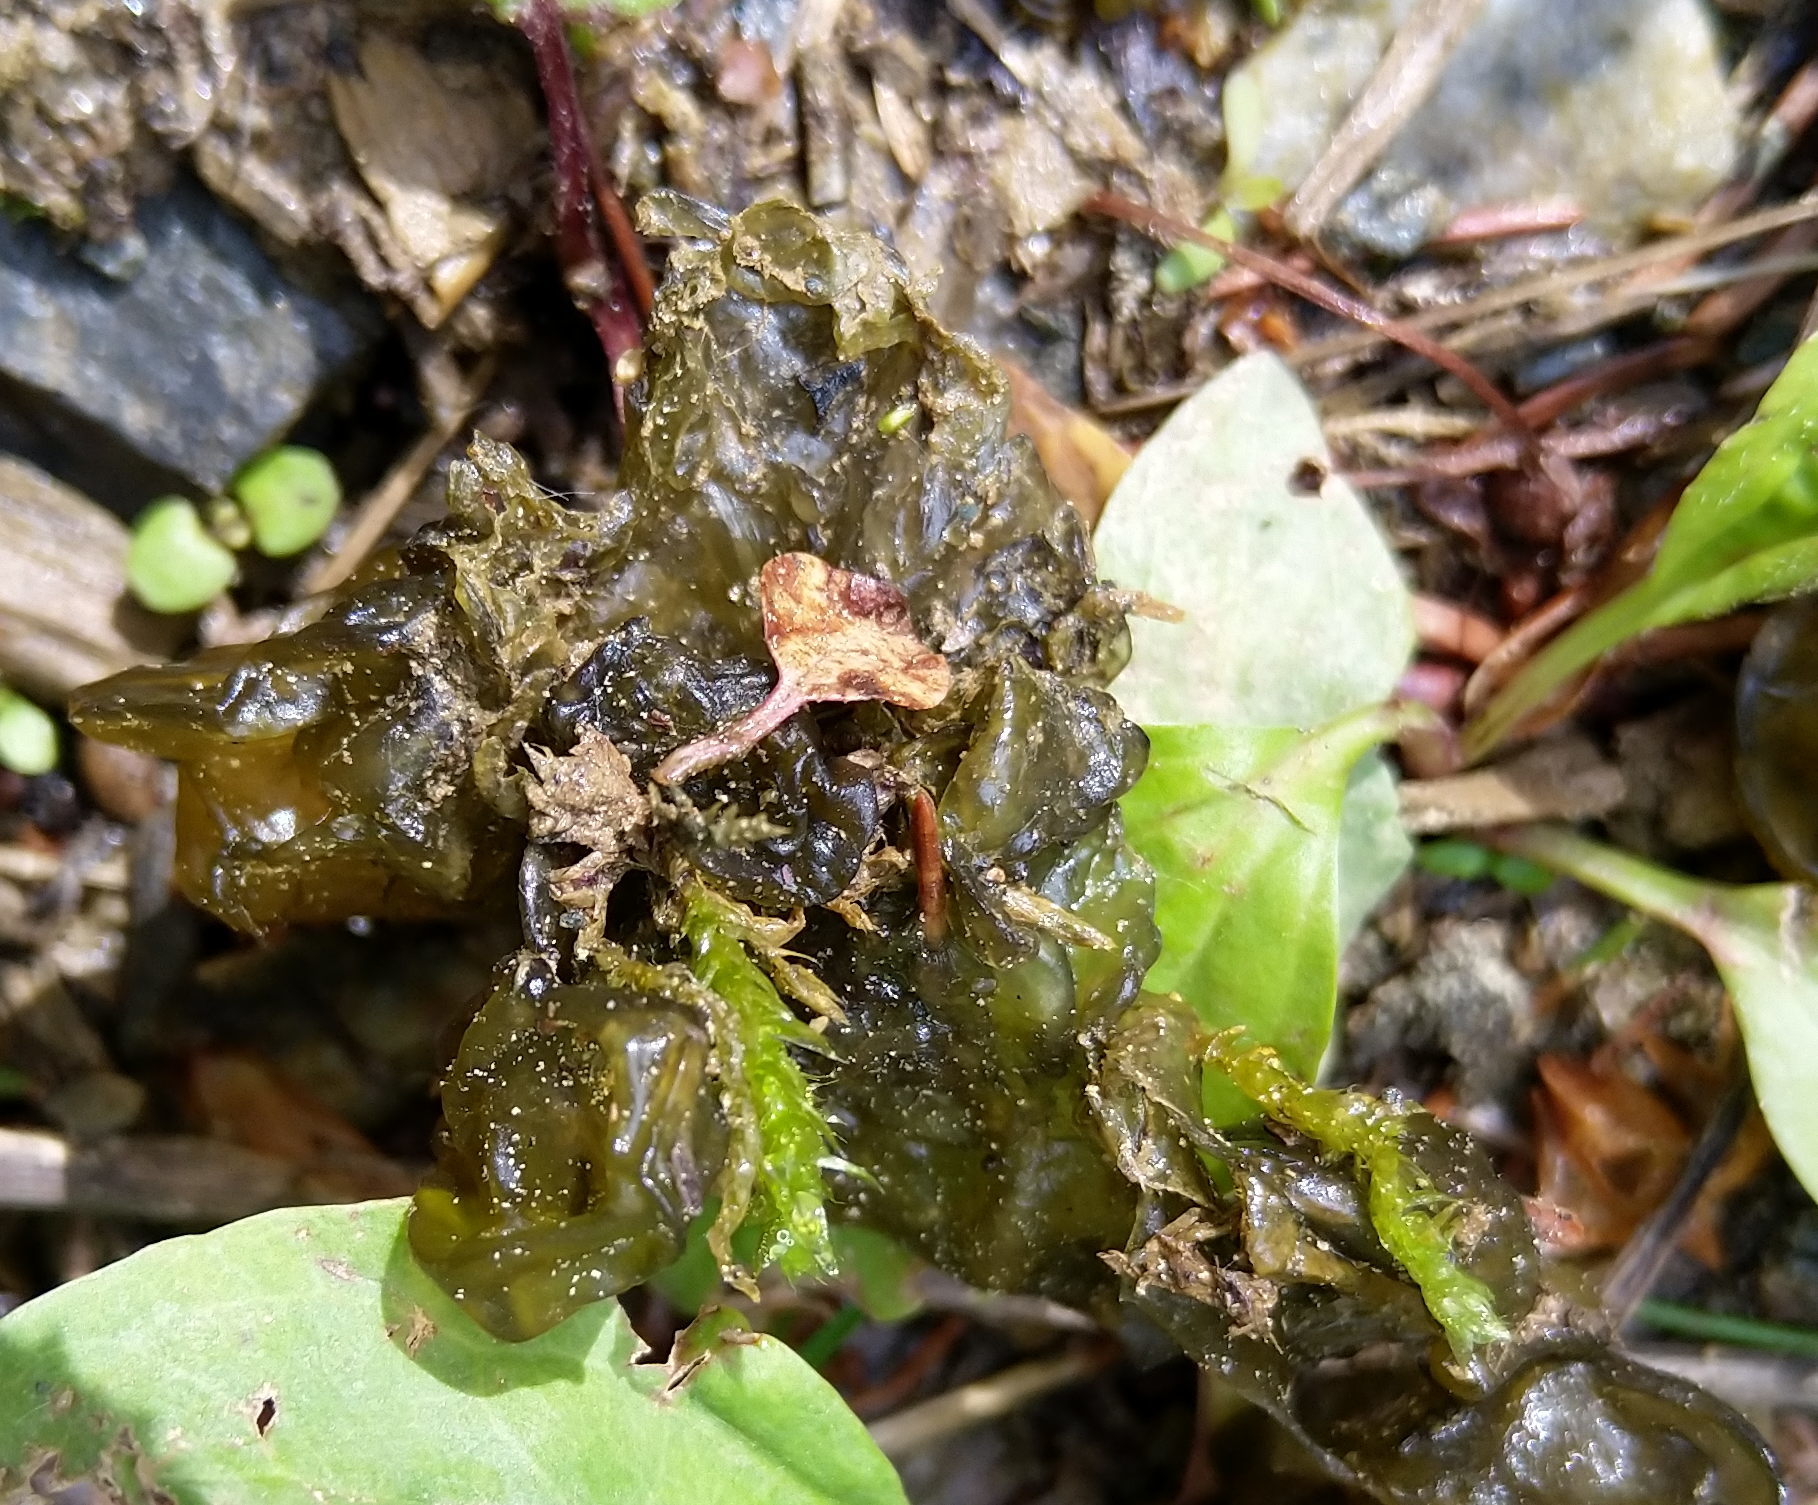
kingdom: Bacteria
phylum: Cyanobacteria
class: Cyanobacteriia
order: Cyanobacteriales
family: Nostocaceae
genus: Nostoc
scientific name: Nostoc commune
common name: Star jelly
